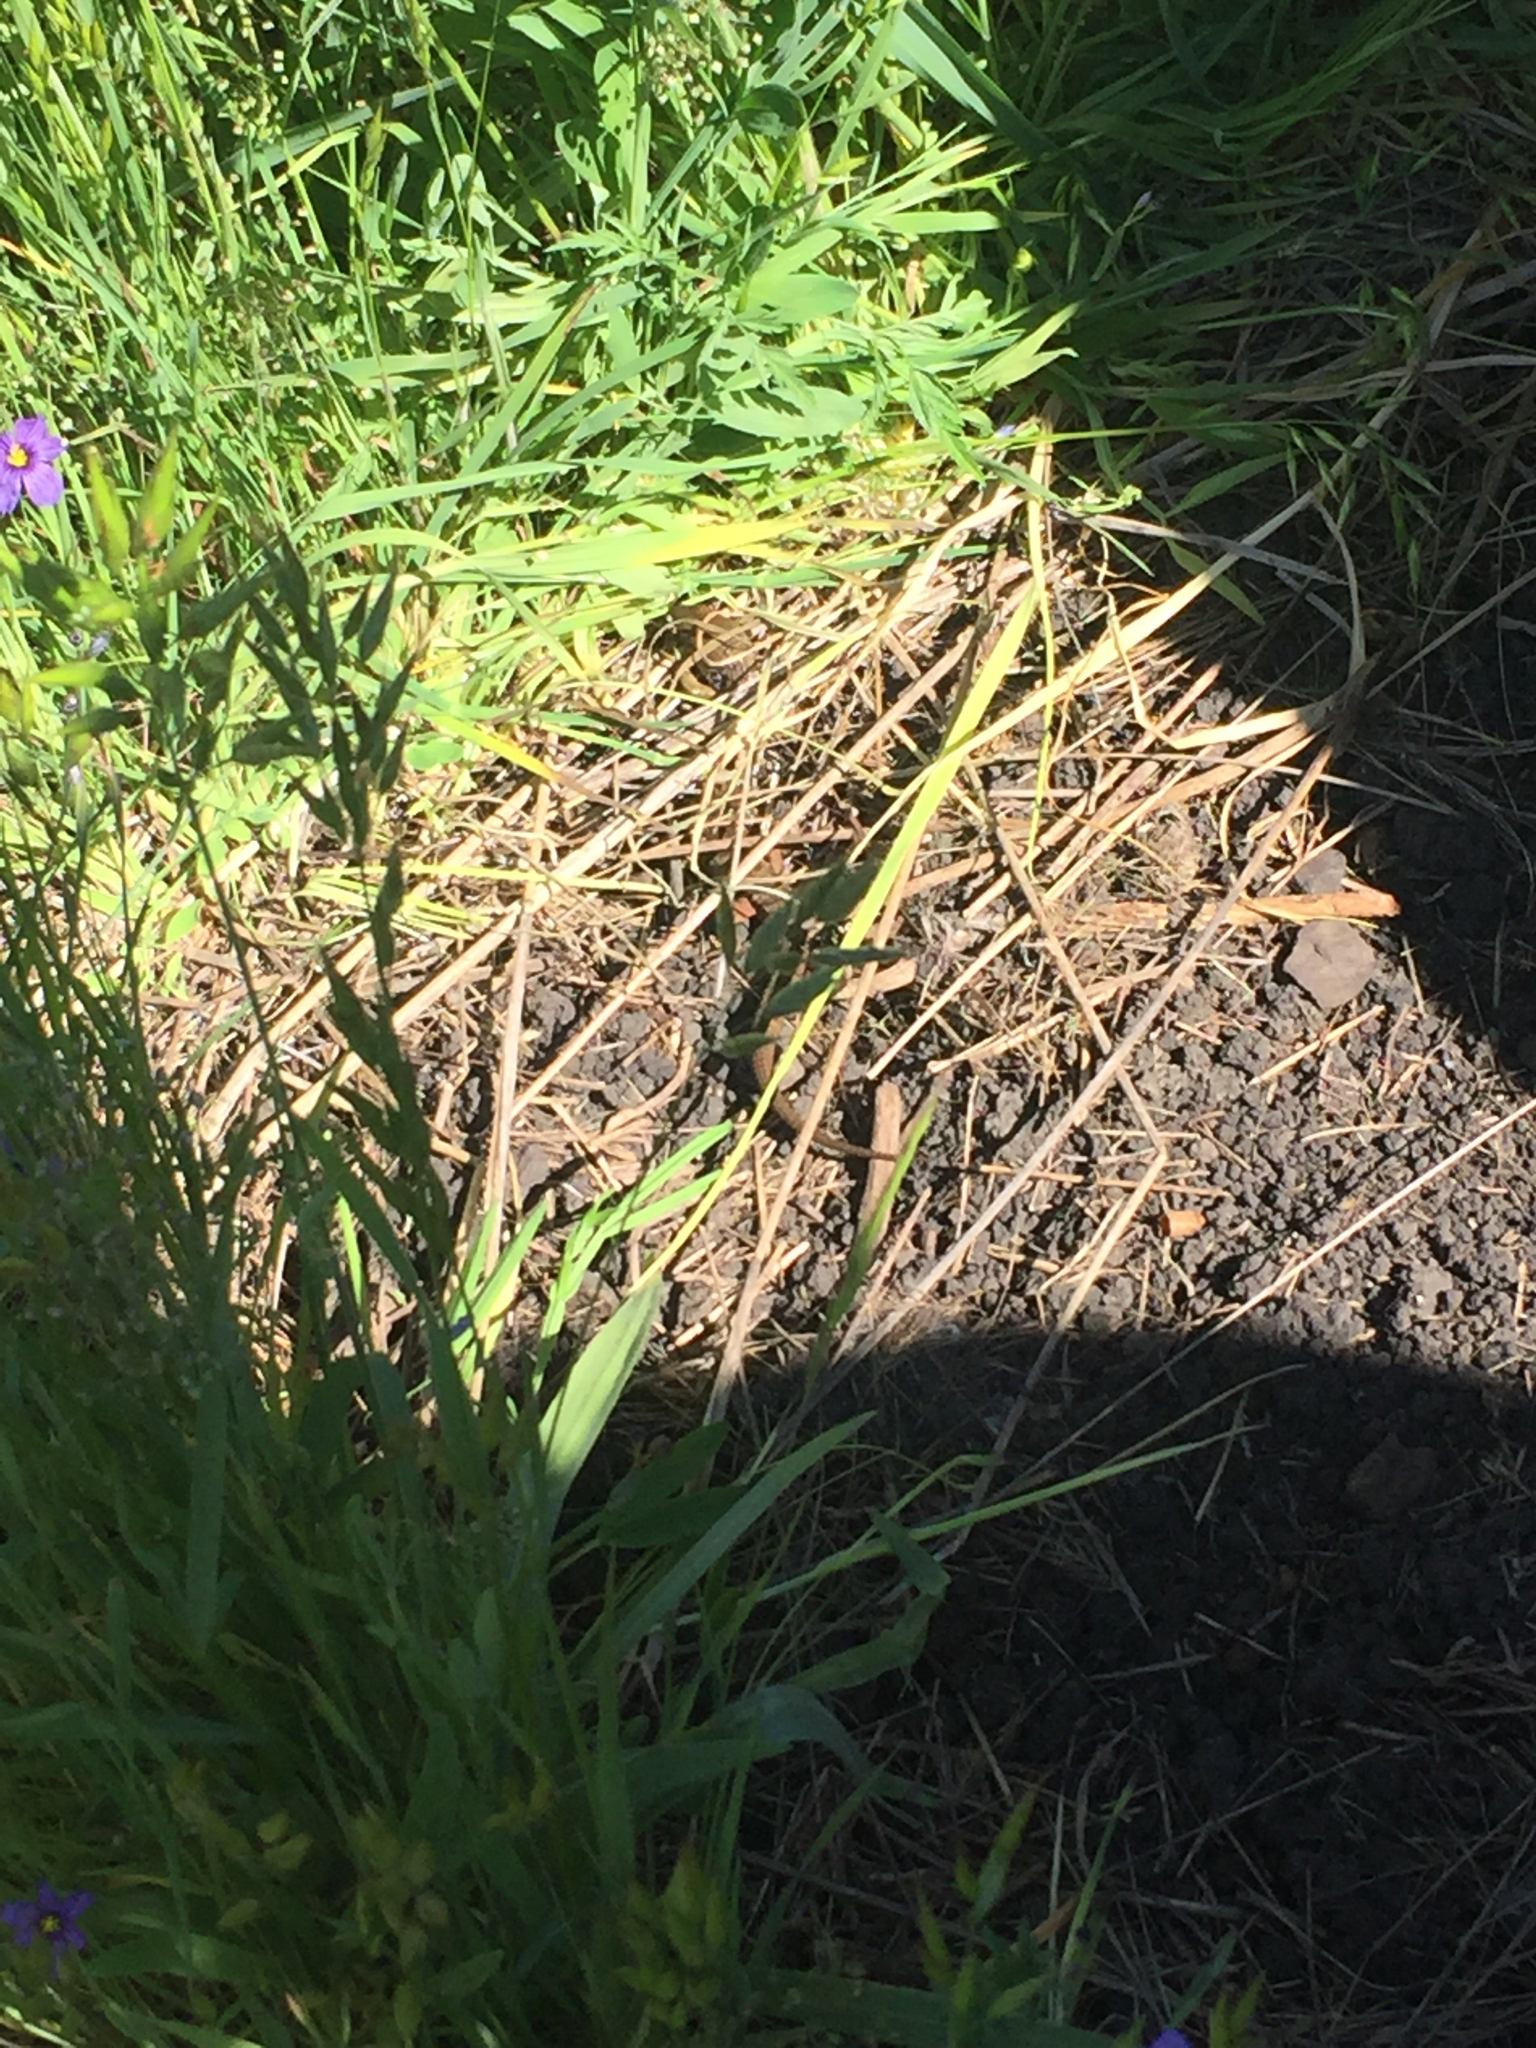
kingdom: Animalia
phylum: Chordata
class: Squamata
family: Anguidae
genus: Elgaria
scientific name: Elgaria multicarinata
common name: Southern alligator lizard
